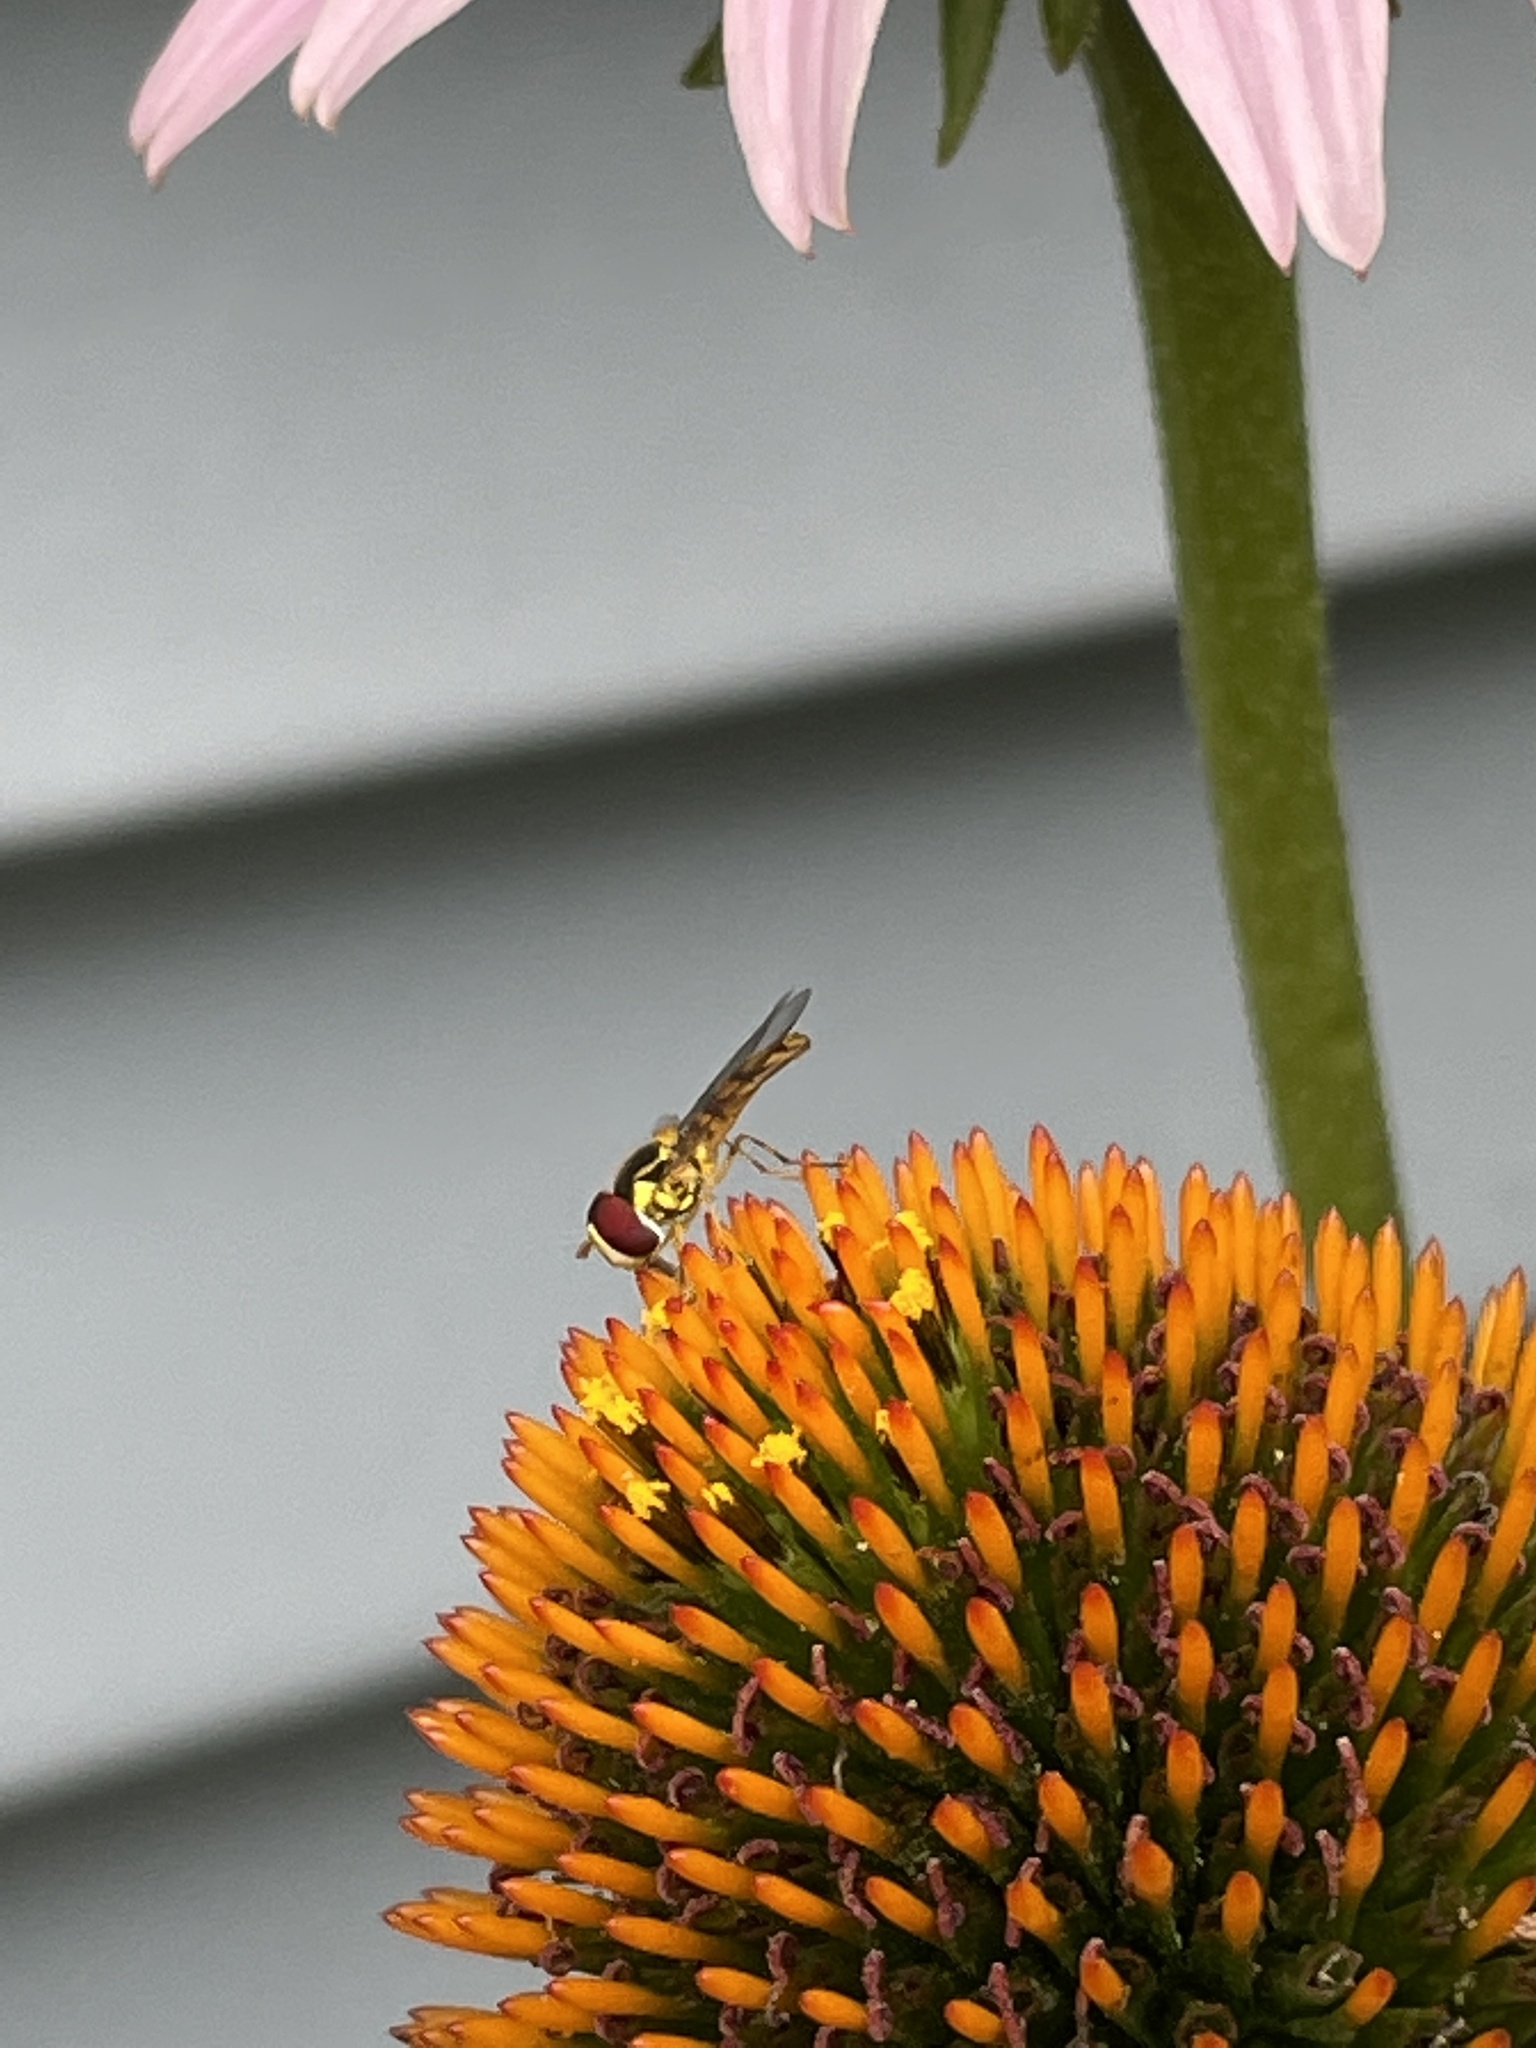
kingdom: Animalia
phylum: Arthropoda
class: Insecta
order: Diptera
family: Syrphidae
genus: Allograpta
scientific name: Allograpta obliqua
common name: Common oblique syrphid
